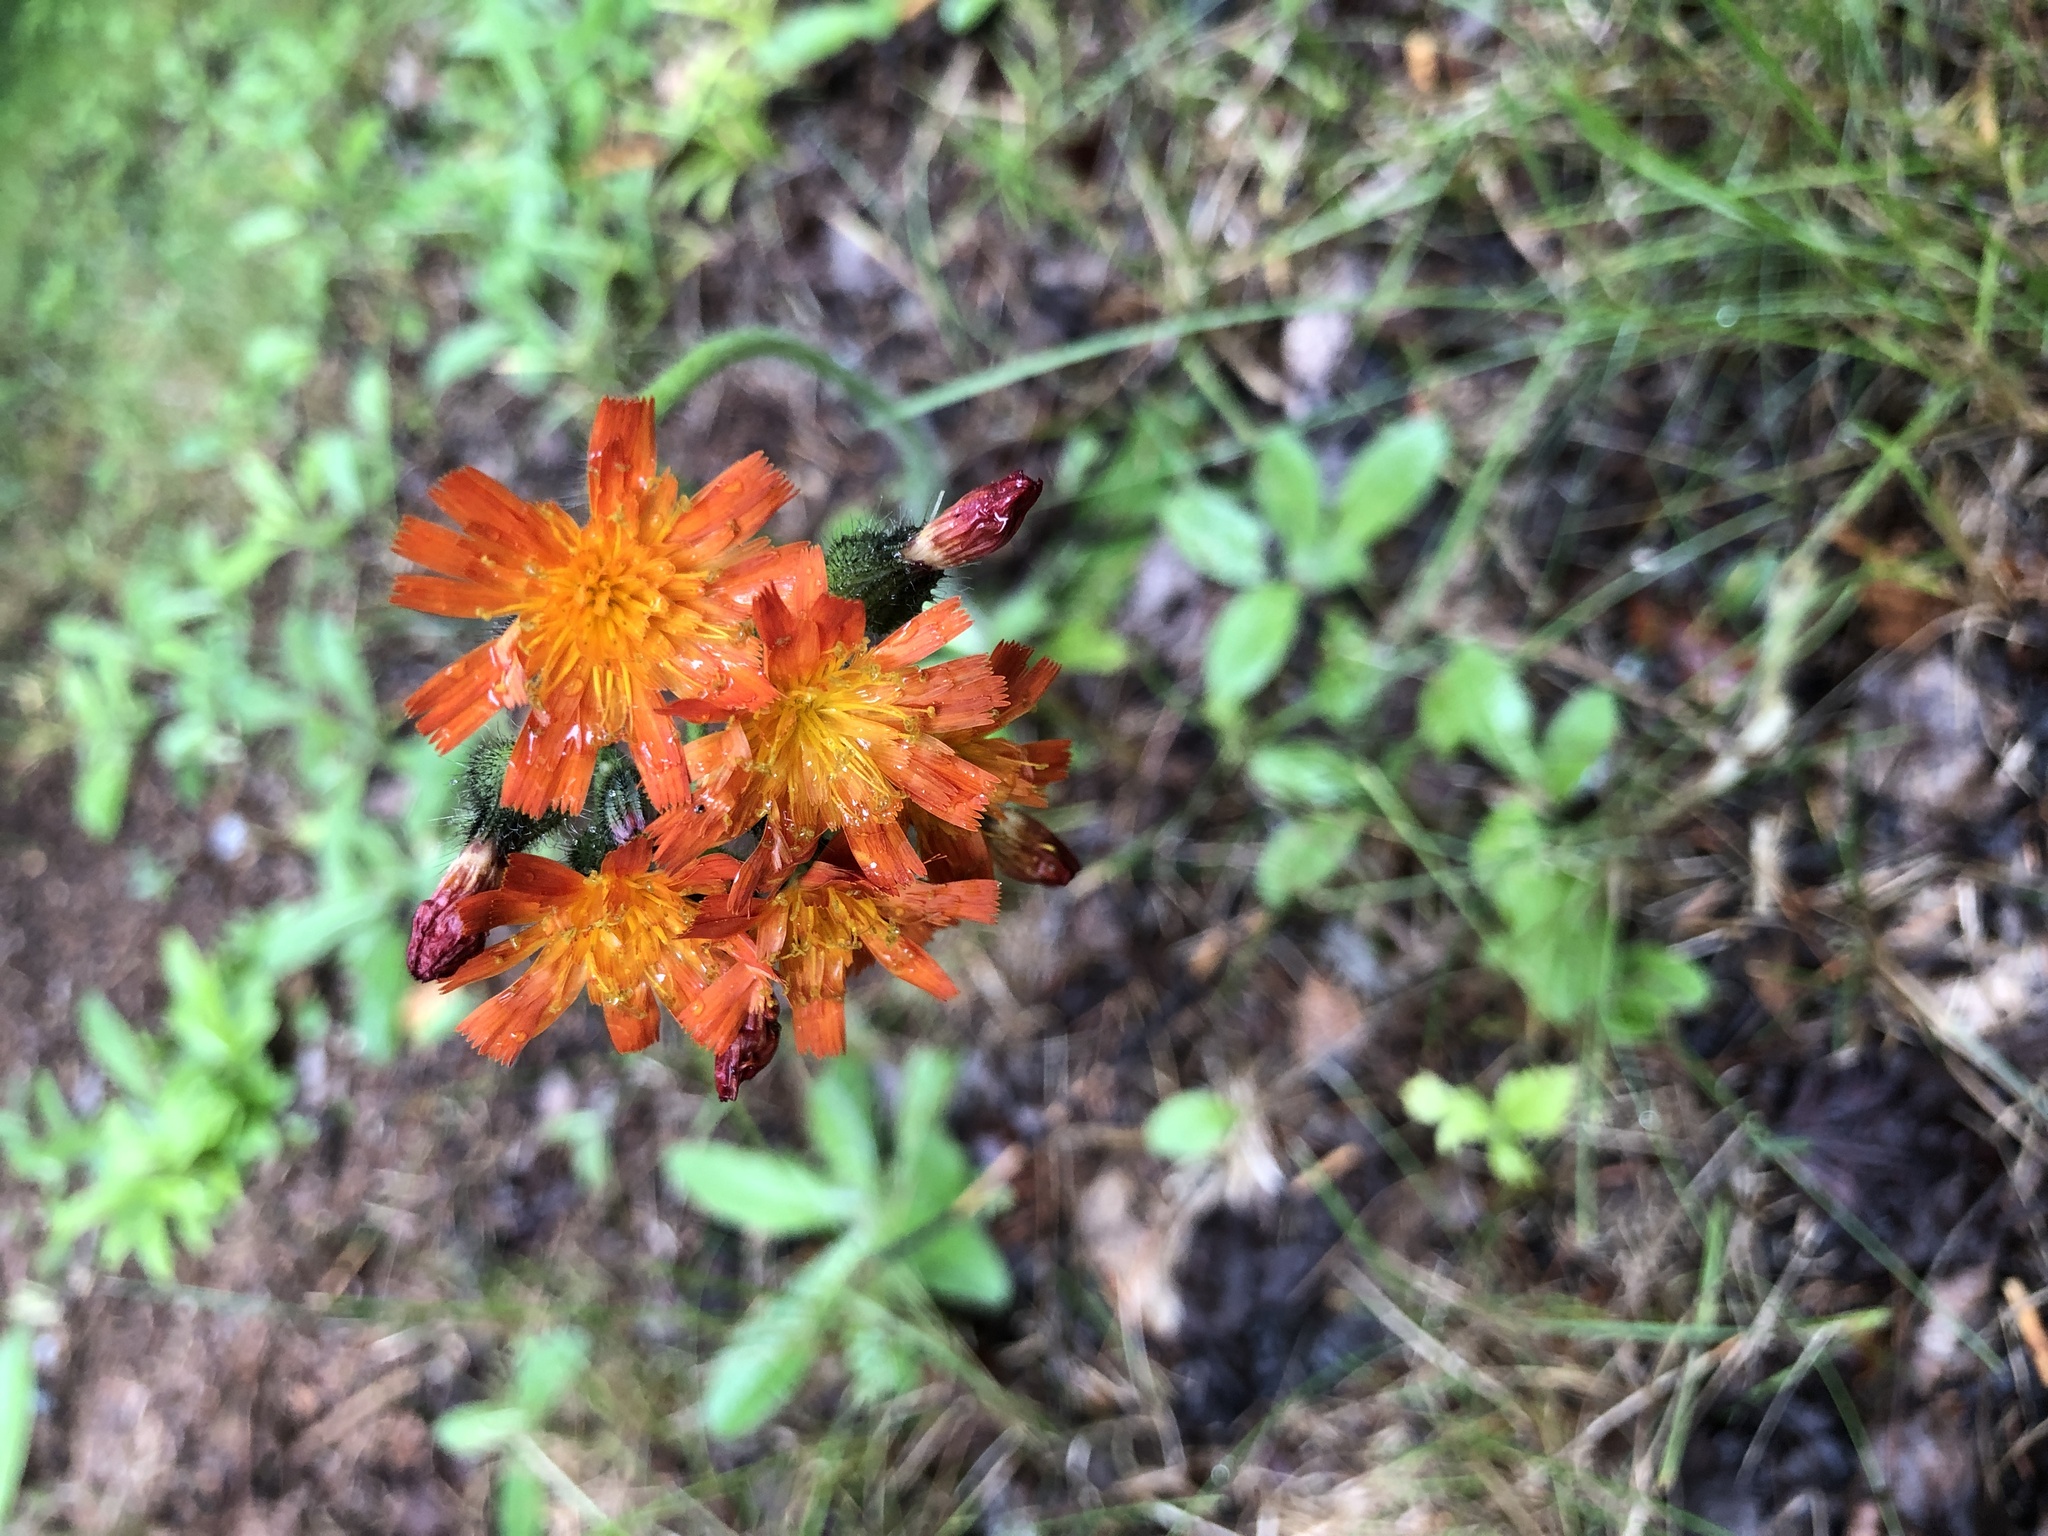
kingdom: Plantae
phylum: Tracheophyta
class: Magnoliopsida
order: Asterales
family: Asteraceae
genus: Pilosella
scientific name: Pilosella aurantiaca
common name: Fox-and-cubs
